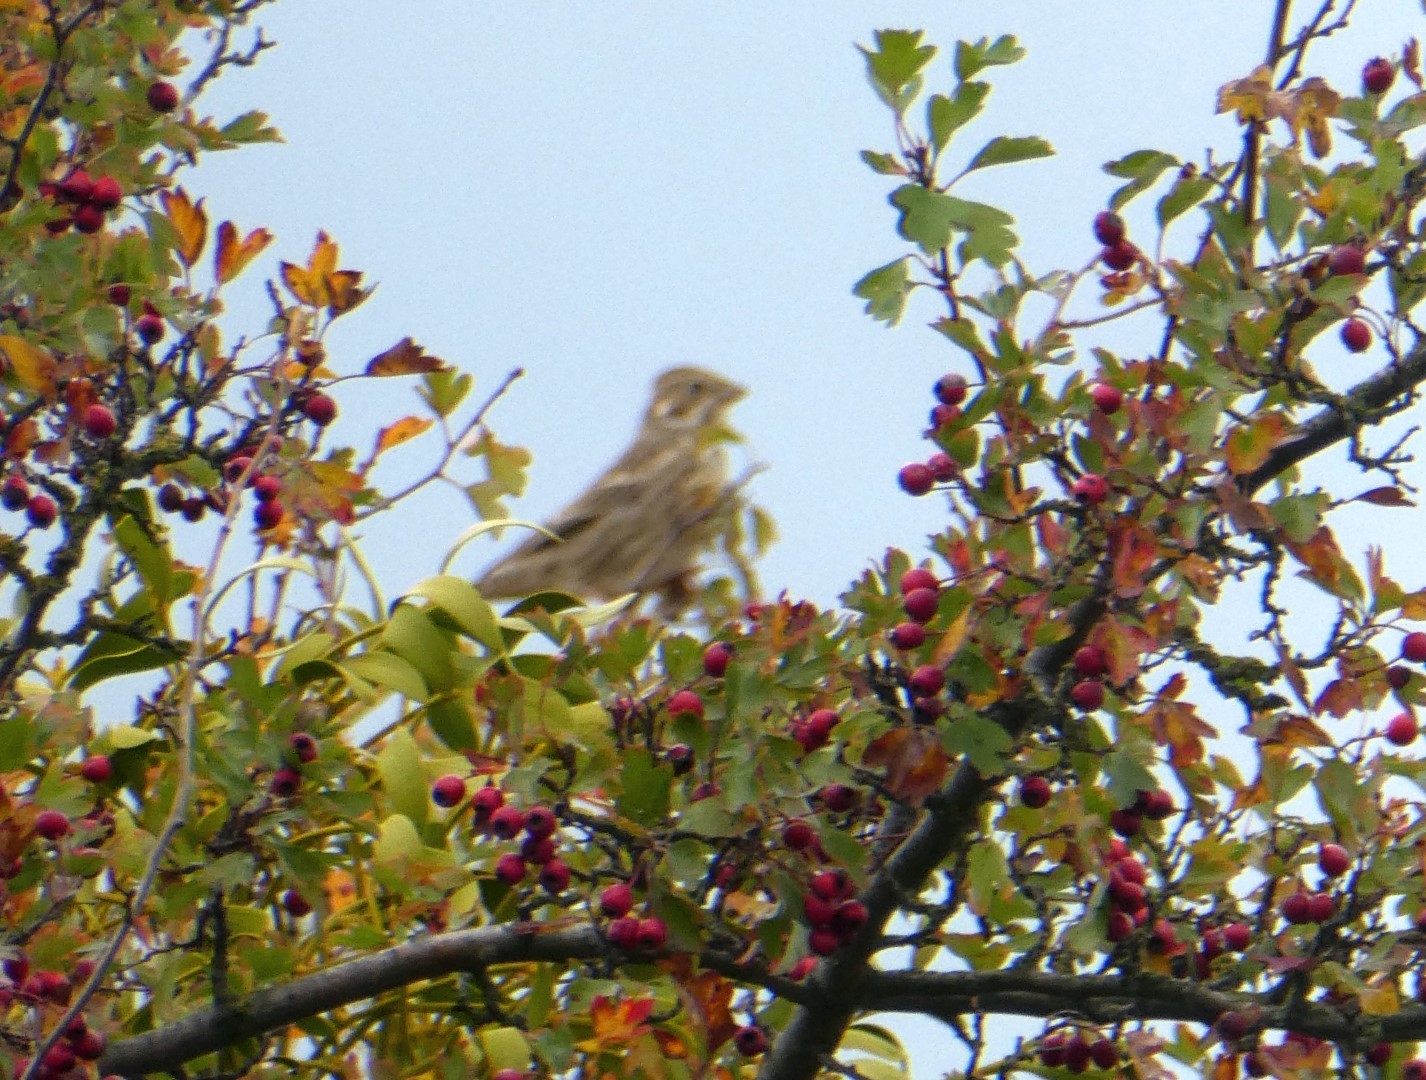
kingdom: Animalia
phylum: Chordata
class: Aves
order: Passeriformes
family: Emberizidae
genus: Emberiza
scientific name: Emberiza calandra
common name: Corn bunting
